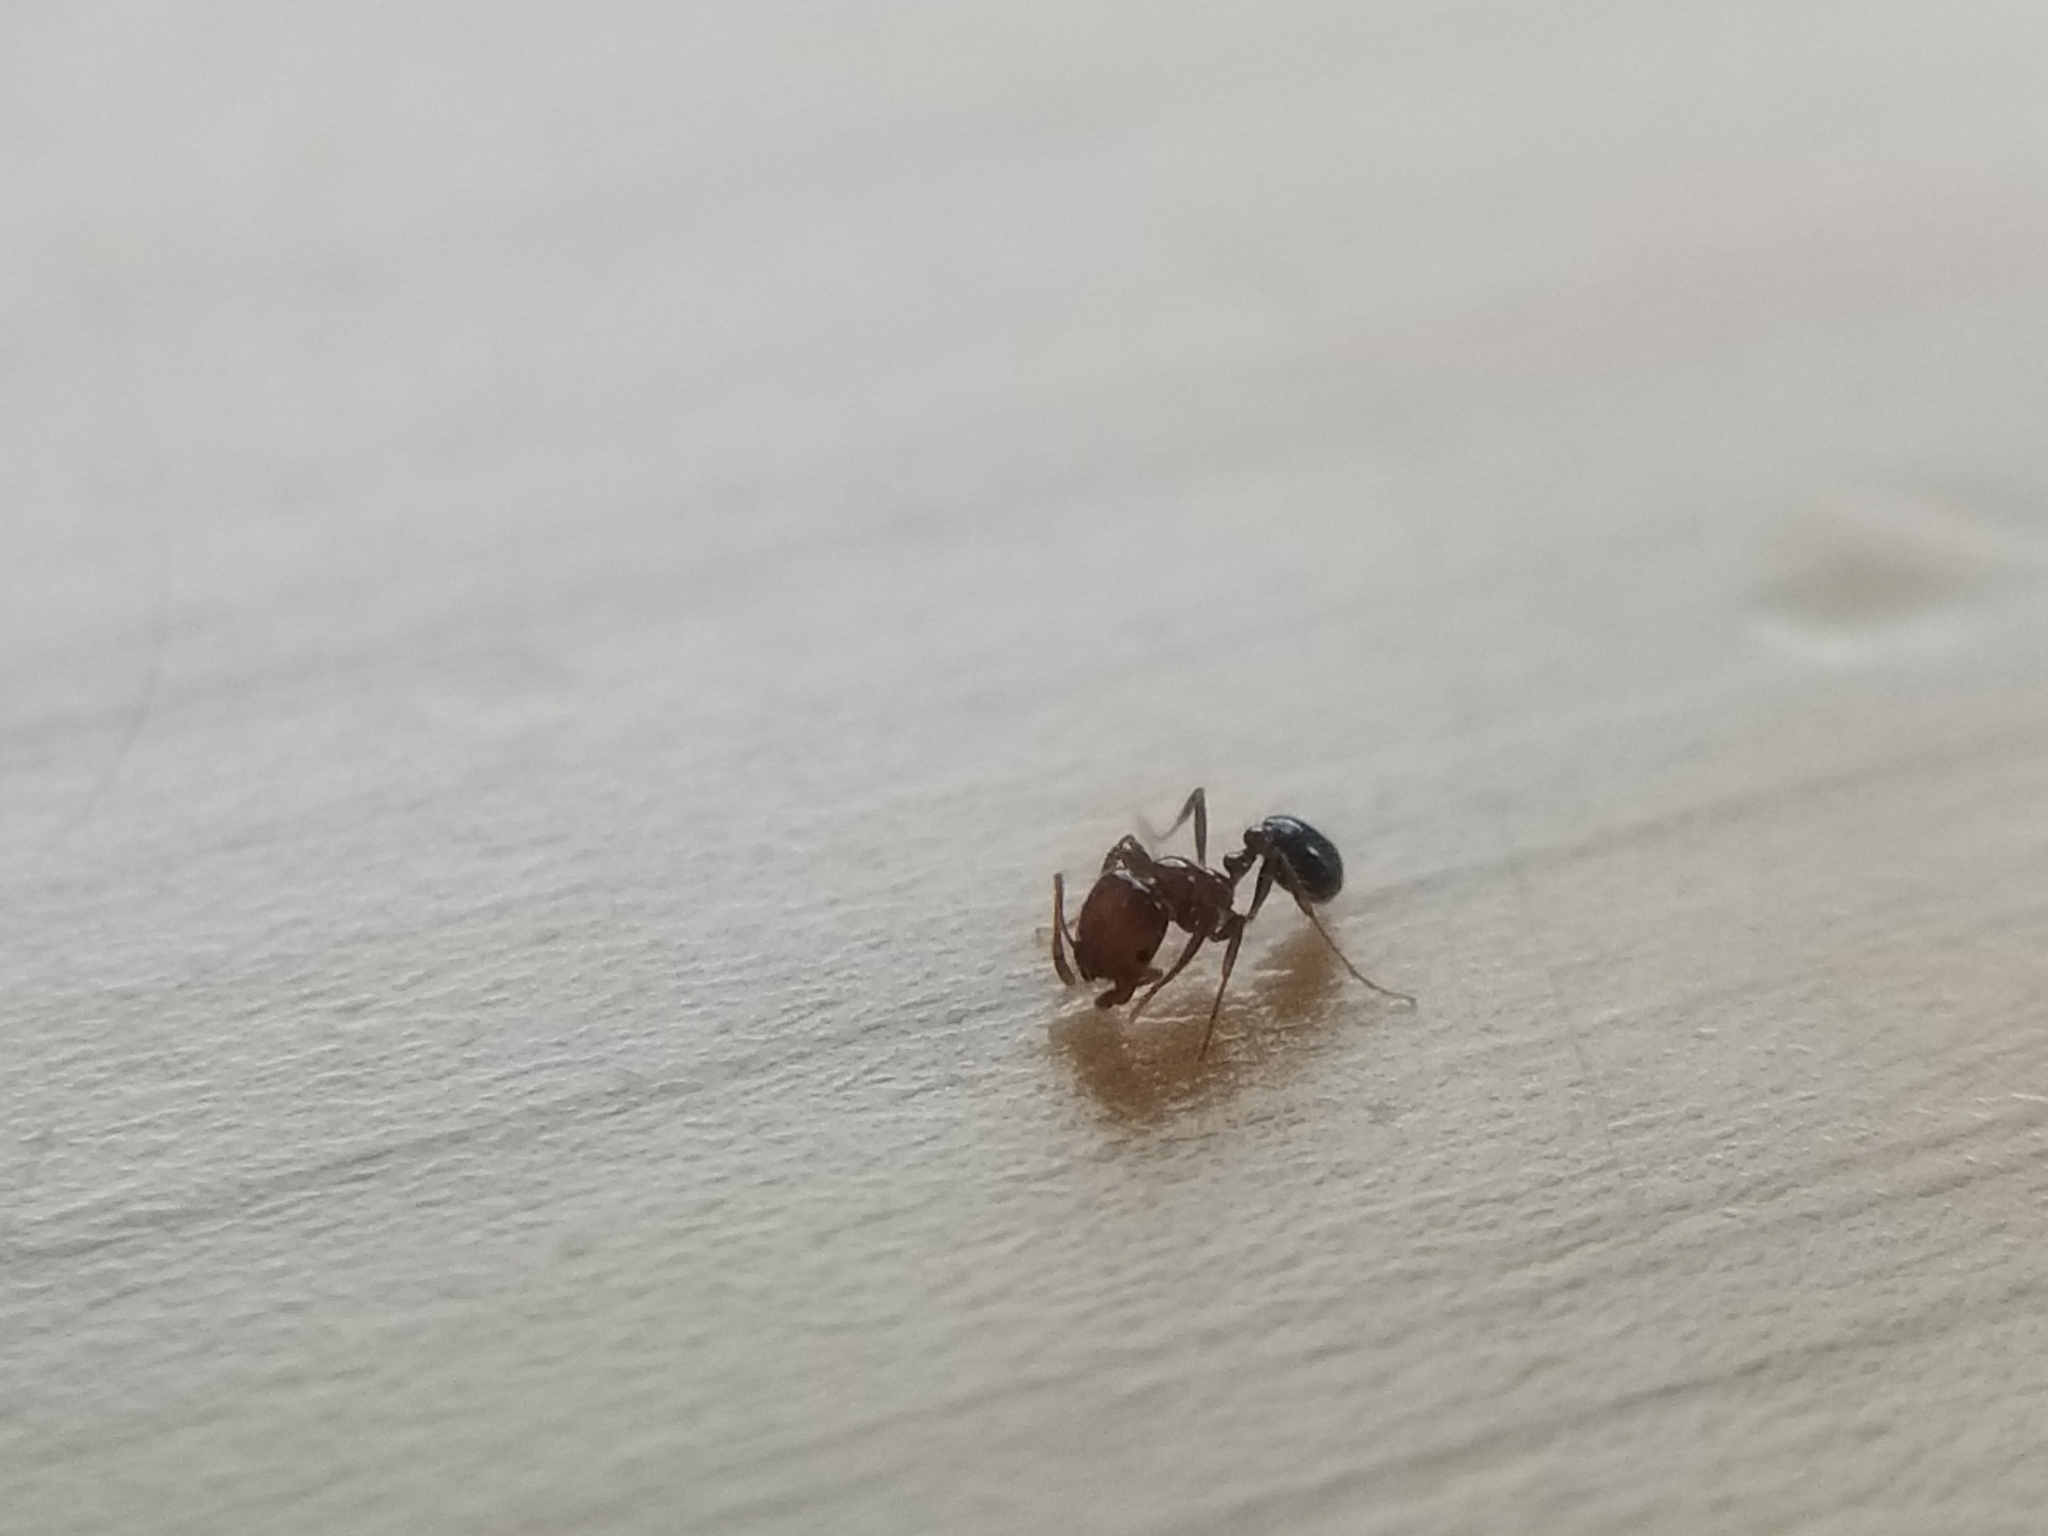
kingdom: Animalia
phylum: Arthropoda
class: Insecta
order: Hymenoptera
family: Formicidae
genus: Solenopsis
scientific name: Solenopsis xyloni
